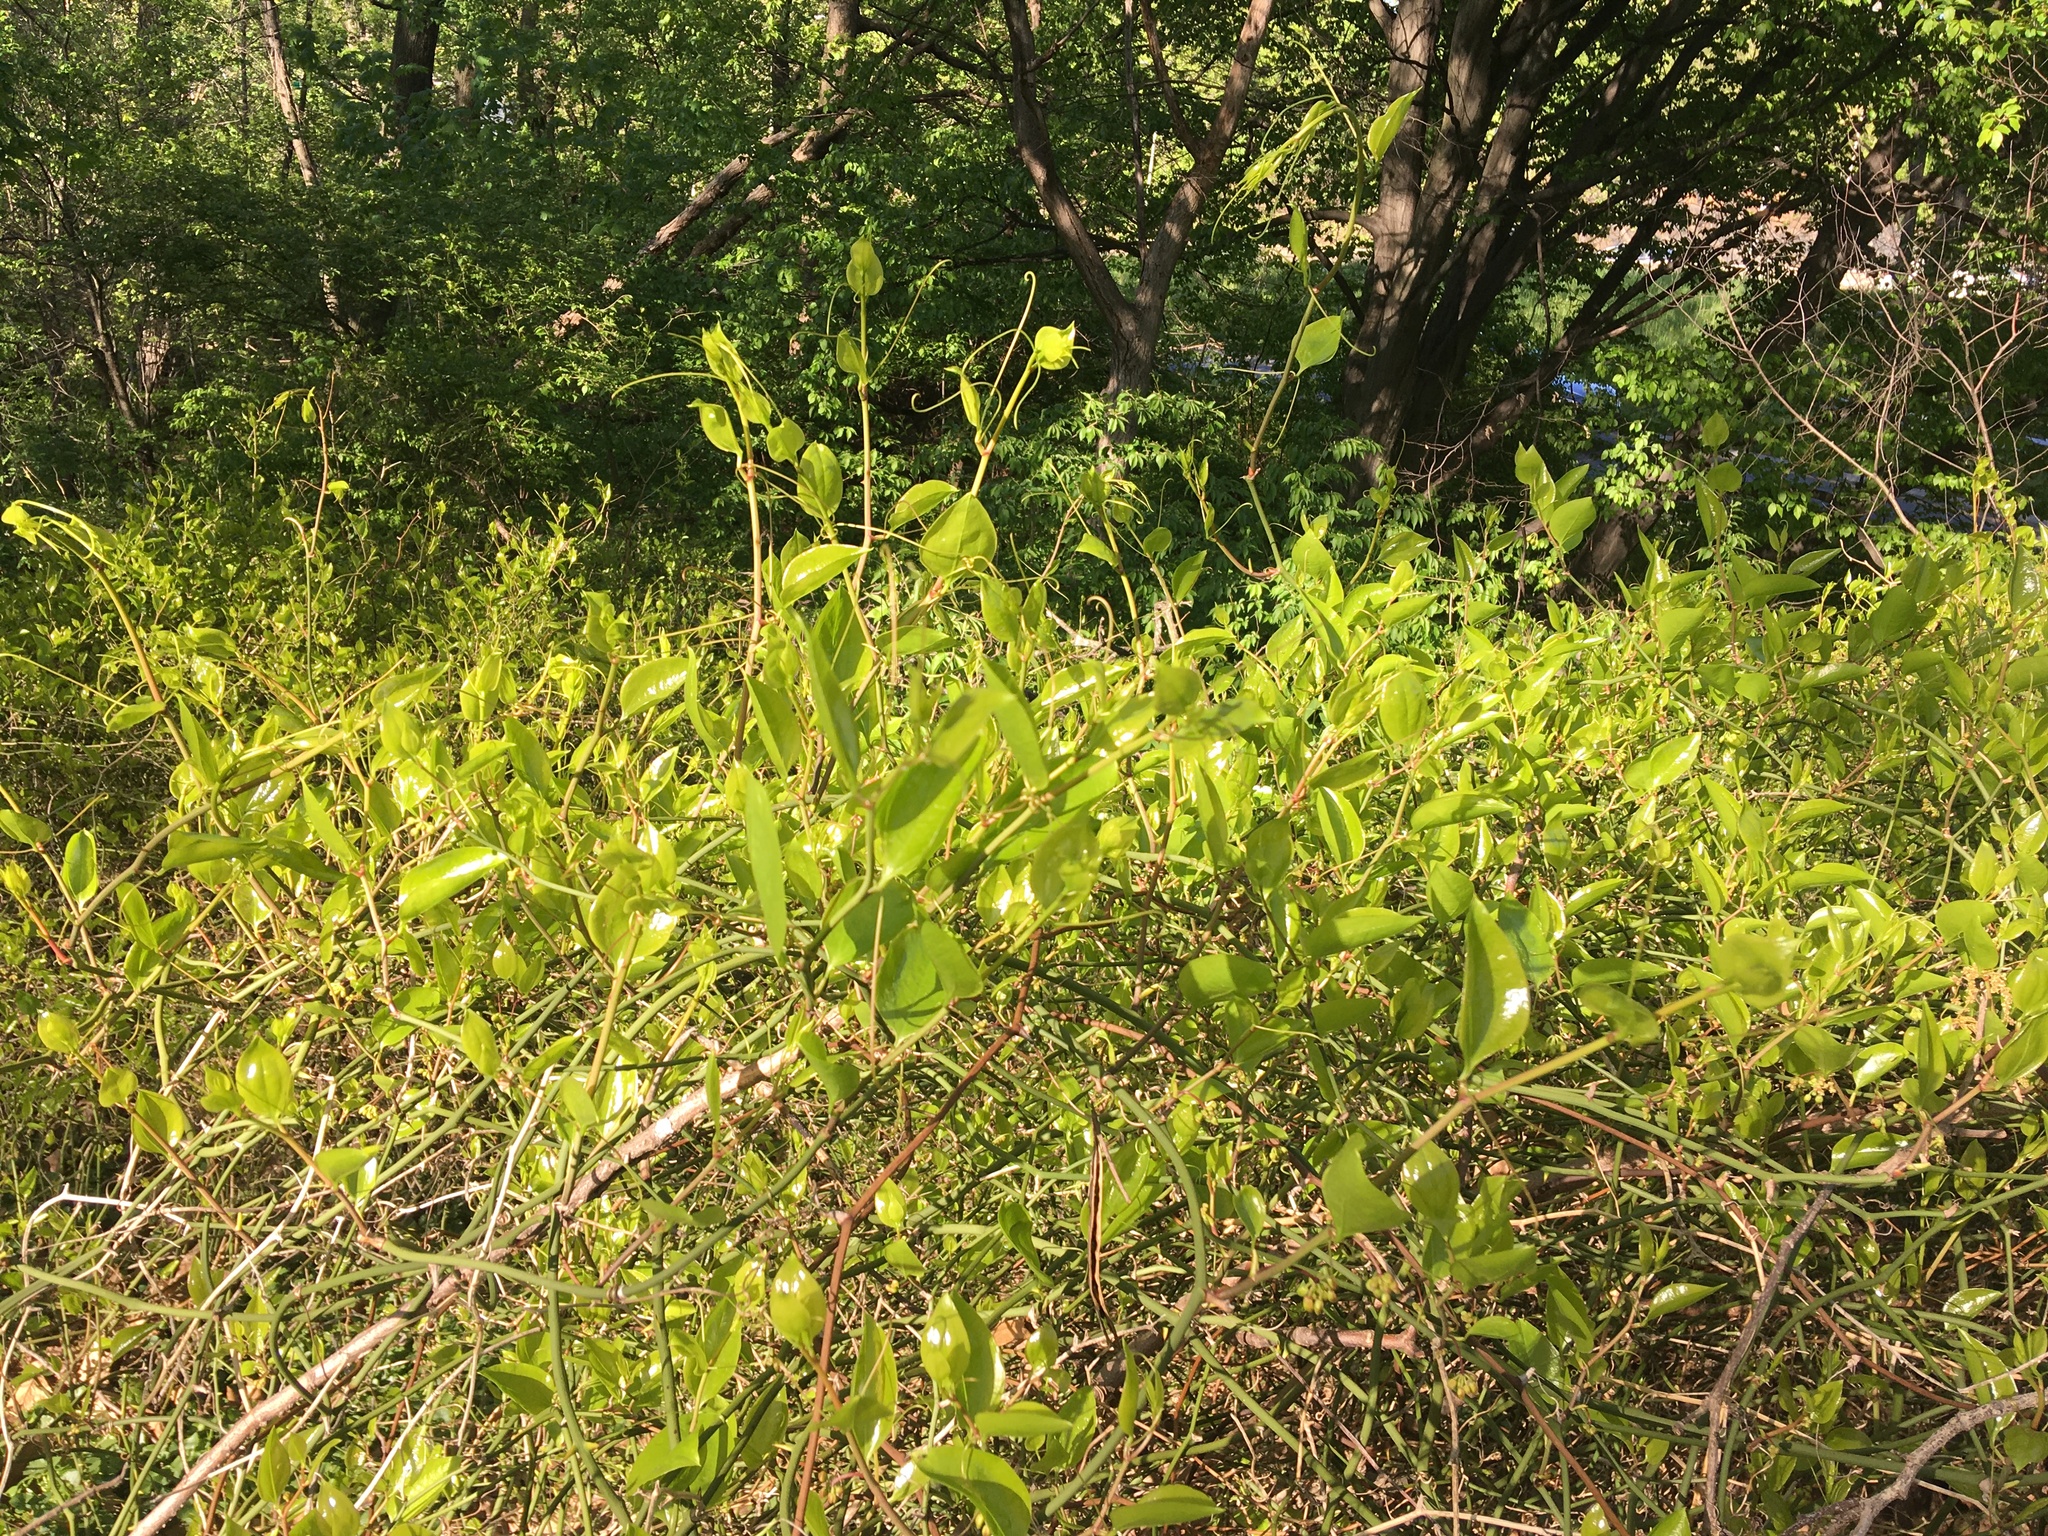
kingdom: Plantae
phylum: Tracheophyta
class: Liliopsida
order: Liliales
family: Smilacaceae
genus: Smilax
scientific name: Smilax rotundifolia
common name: Bullbriar
